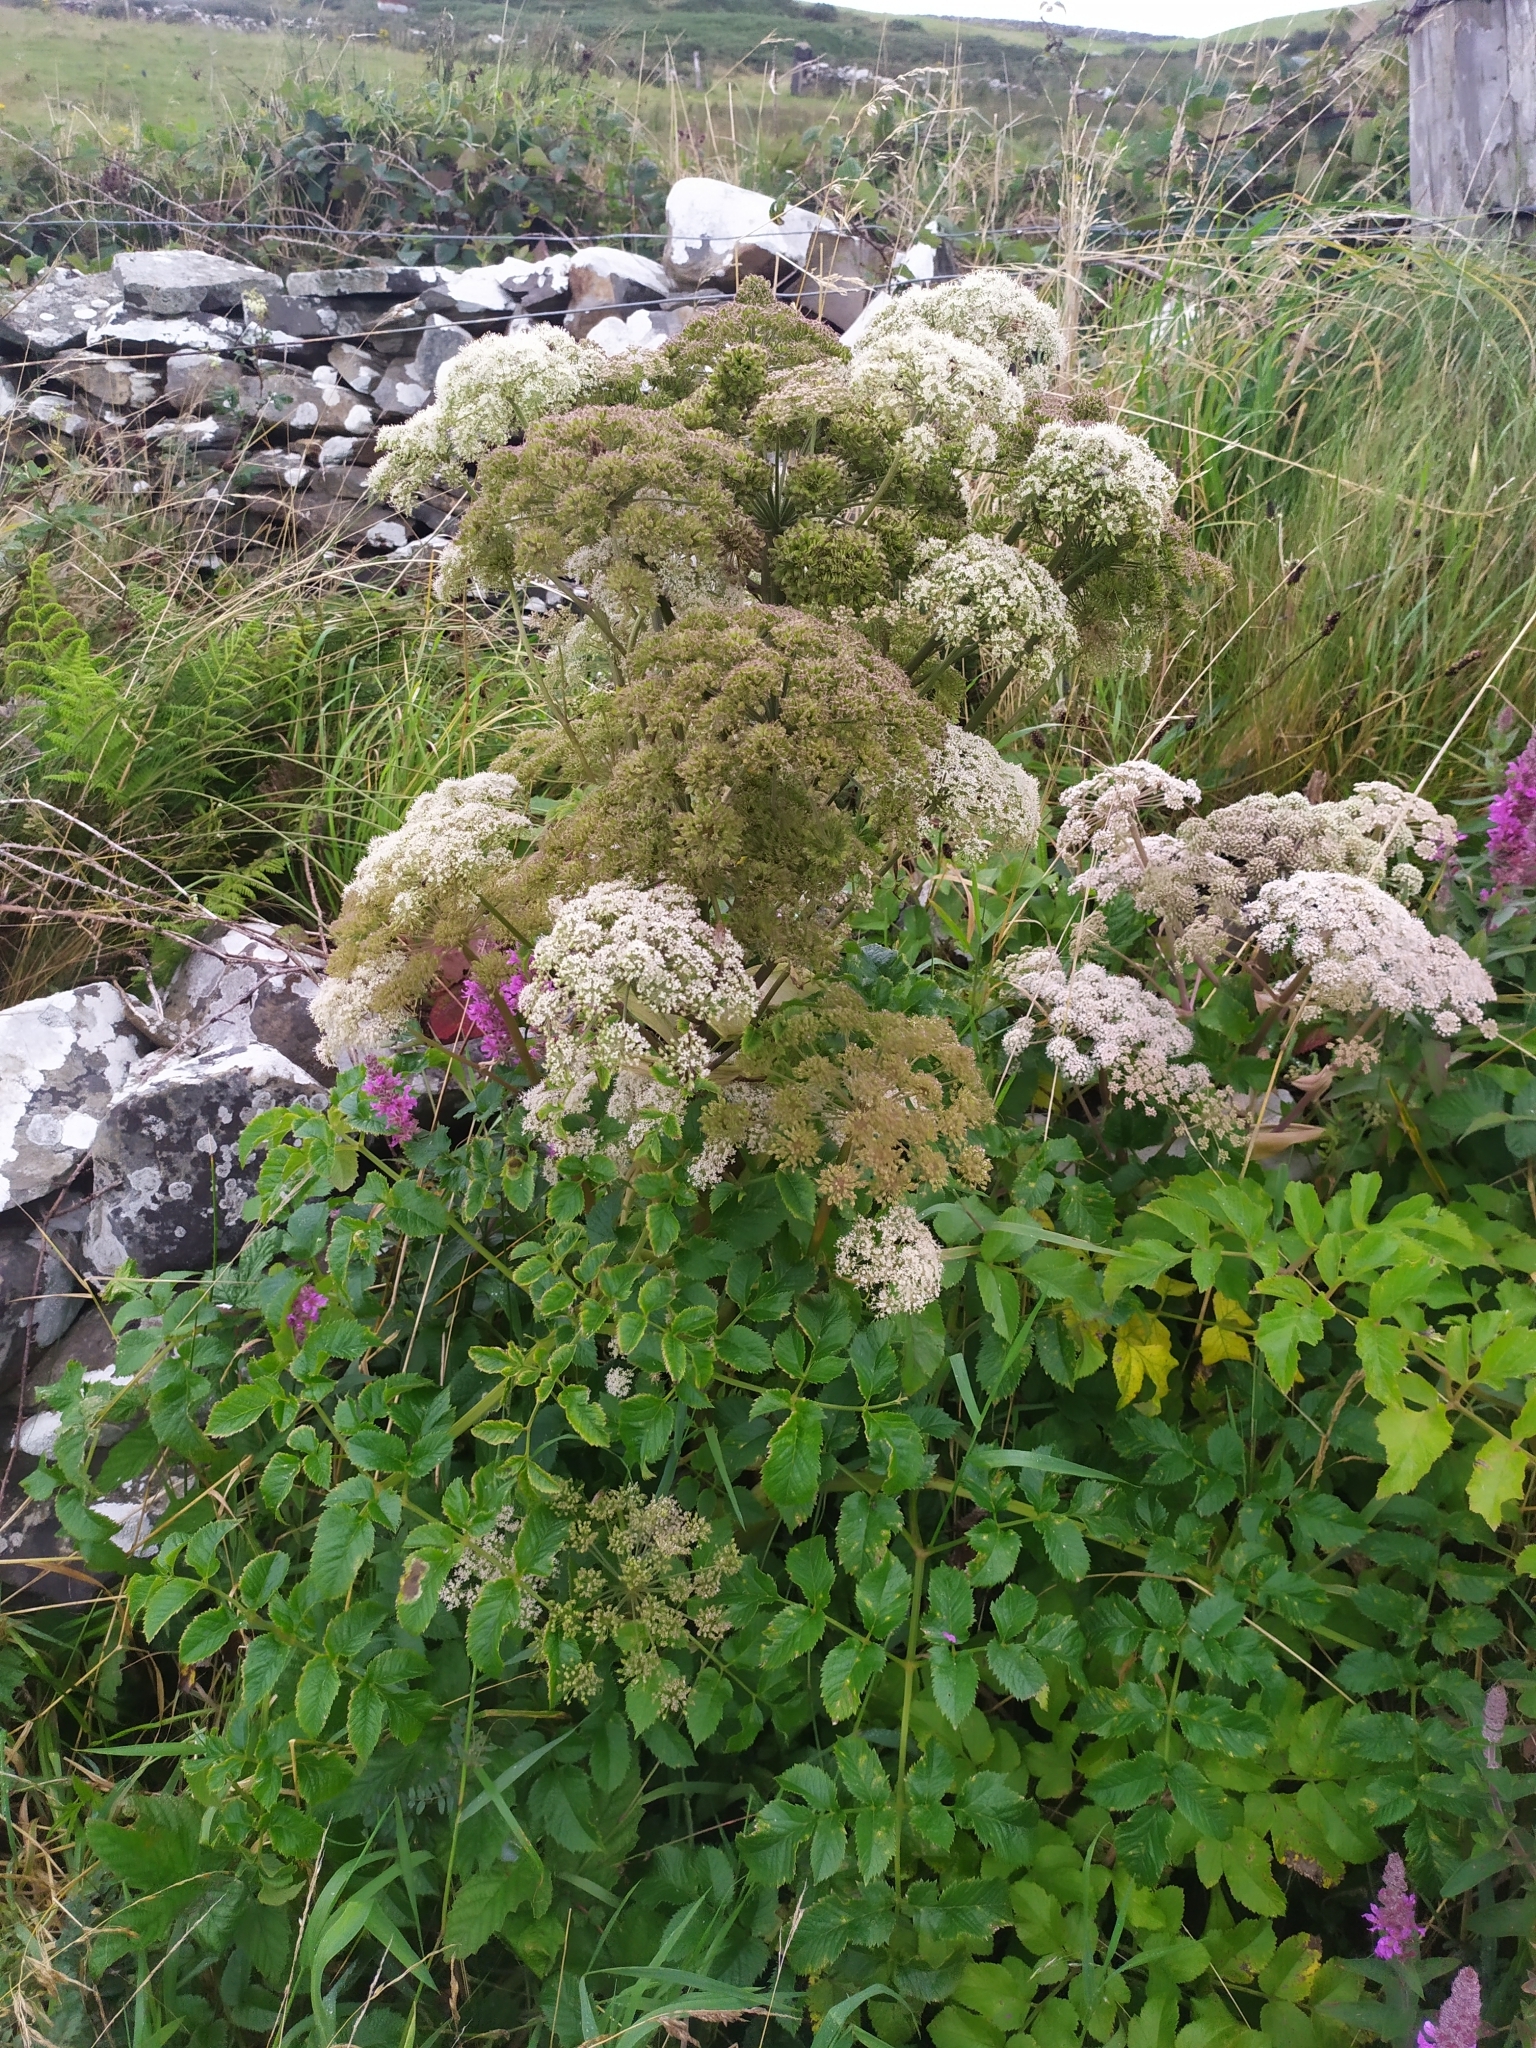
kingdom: Plantae
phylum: Tracheophyta
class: Magnoliopsida
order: Apiales
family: Apiaceae
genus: Angelica
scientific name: Angelica sylvestris
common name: Wild angelica
